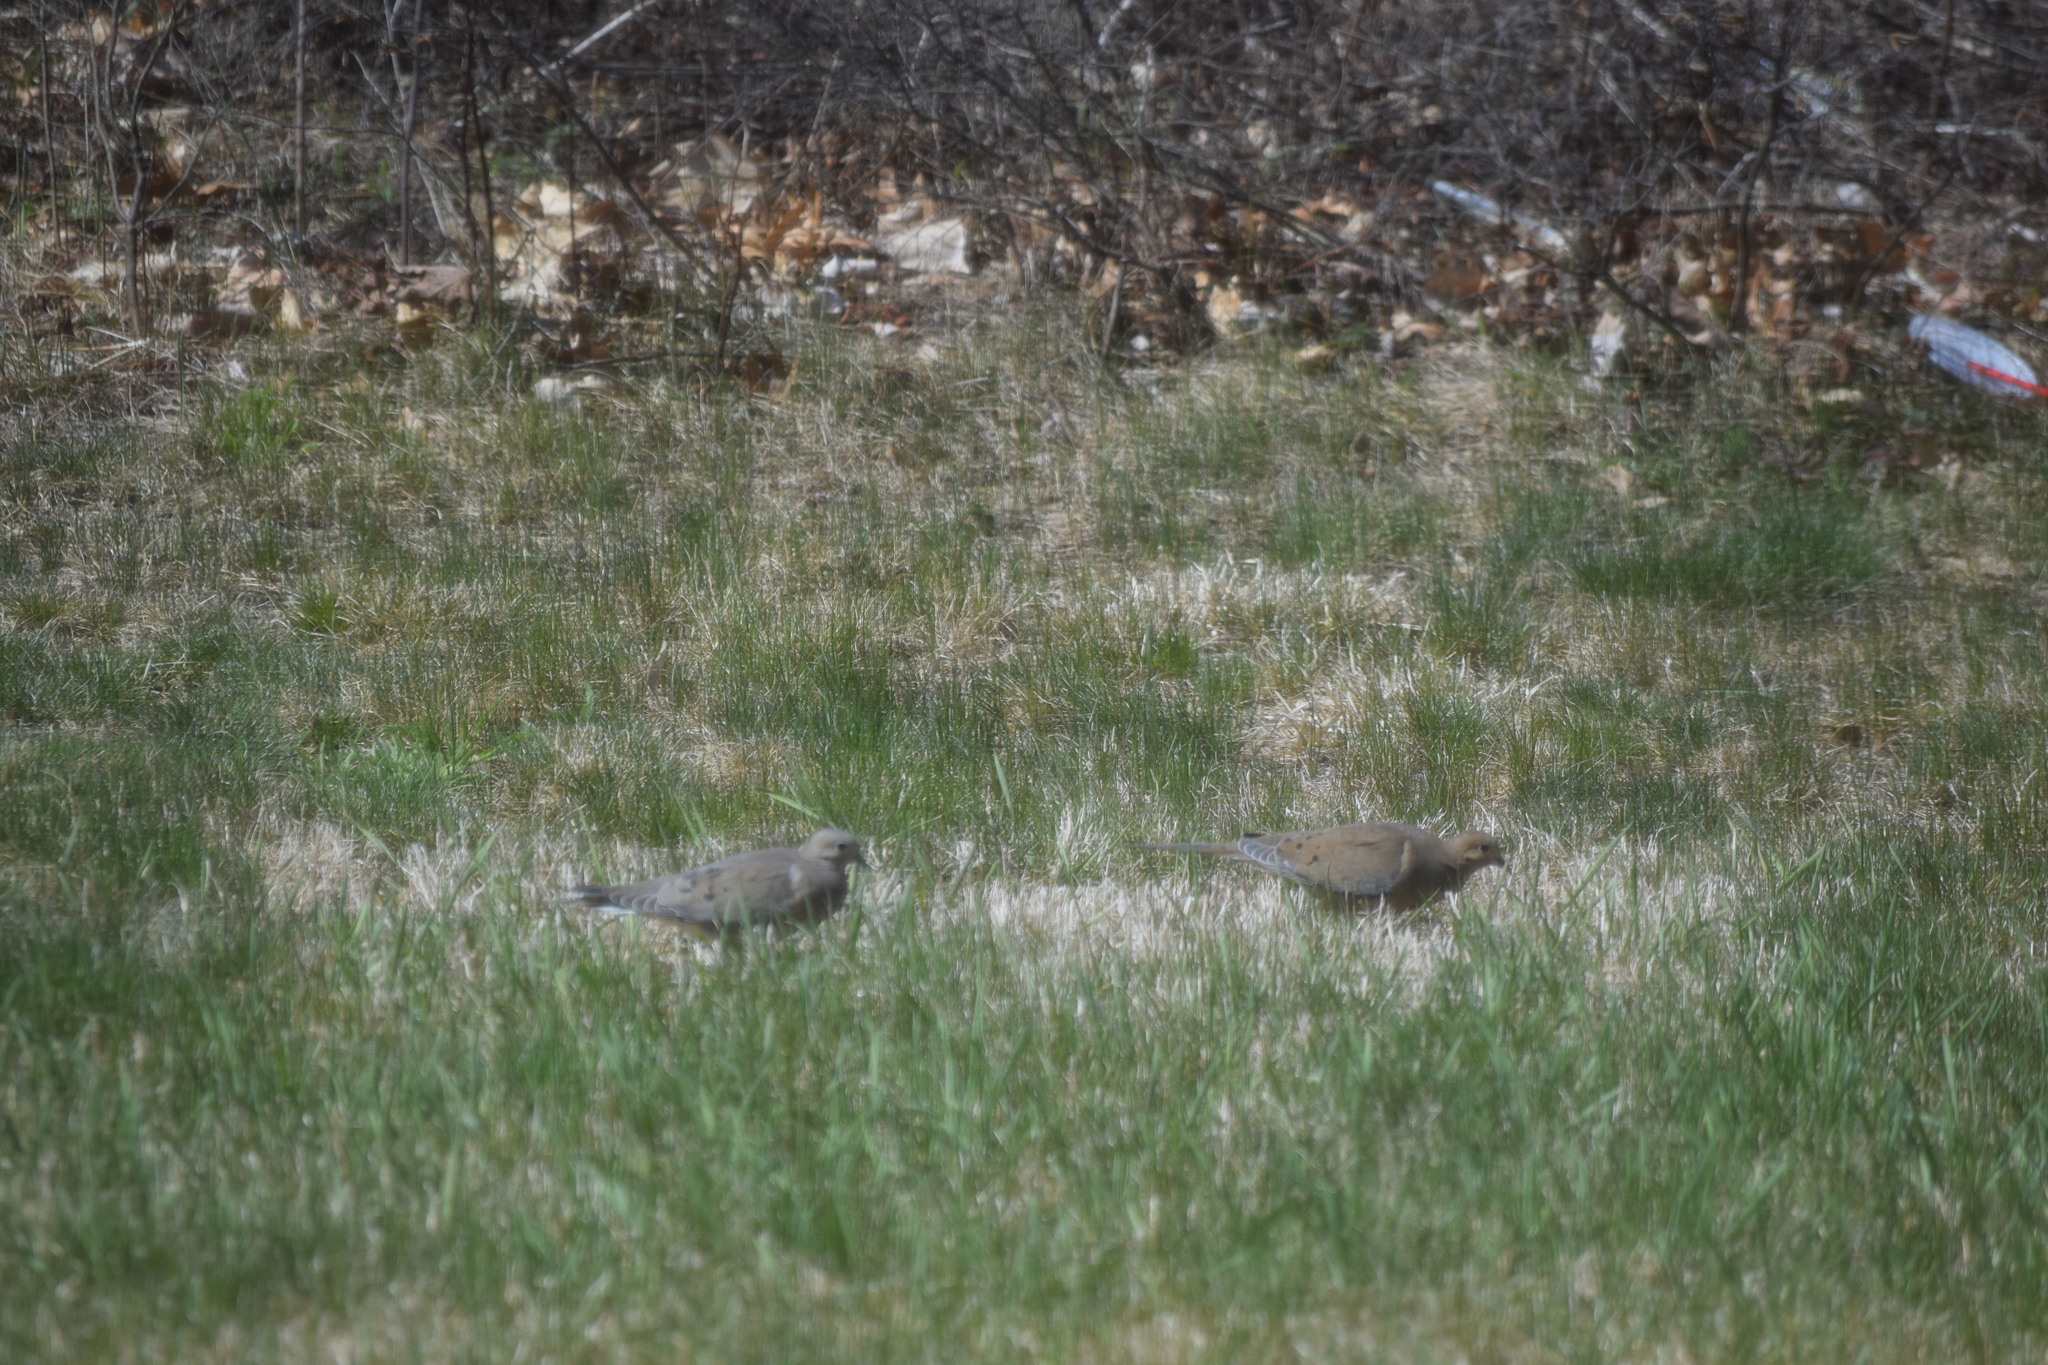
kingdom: Animalia
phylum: Chordata
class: Aves
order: Columbiformes
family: Columbidae
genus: Zenaida
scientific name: Zenaida macroura
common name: Mourning dove
